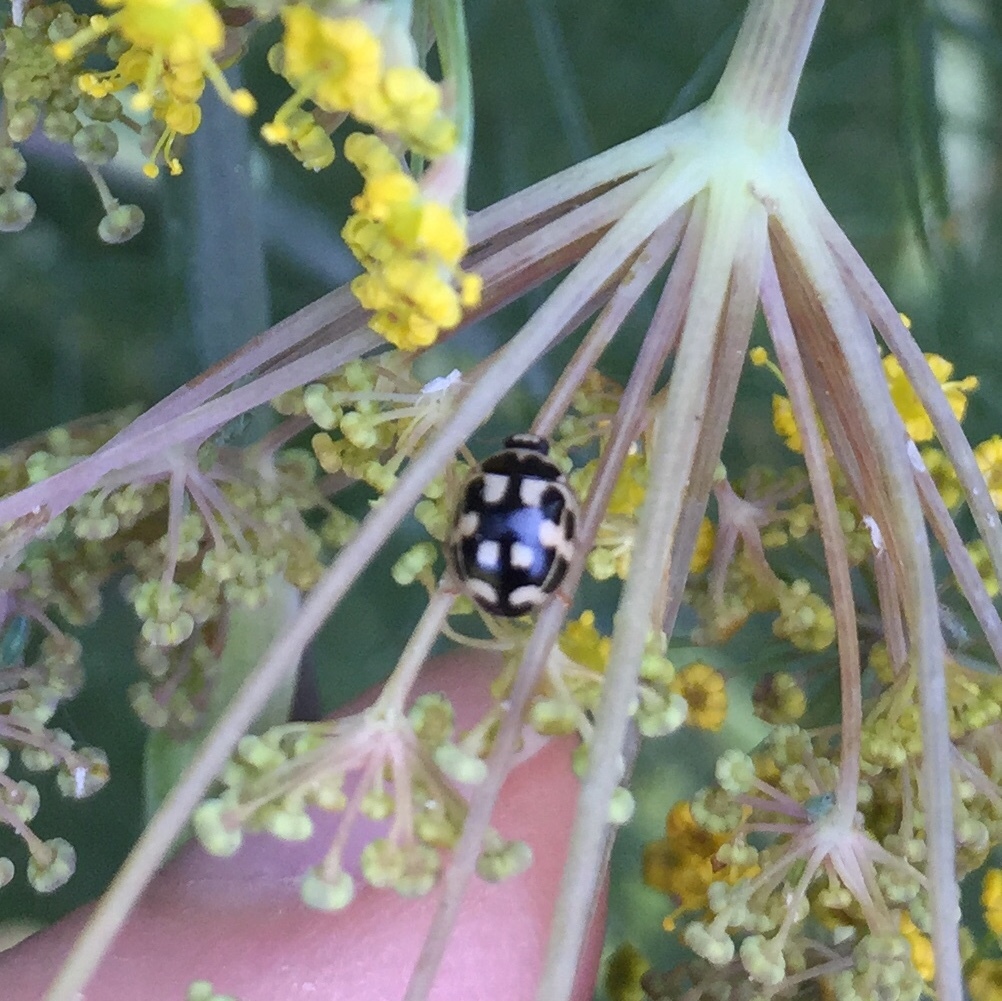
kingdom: Animalia
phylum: Arthropoda
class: Insecta
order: Coleoptera
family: Coccinellidae
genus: Propylaea
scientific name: Propylaea quatuordecimpunctata
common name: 14-spotted ladybird beetle
